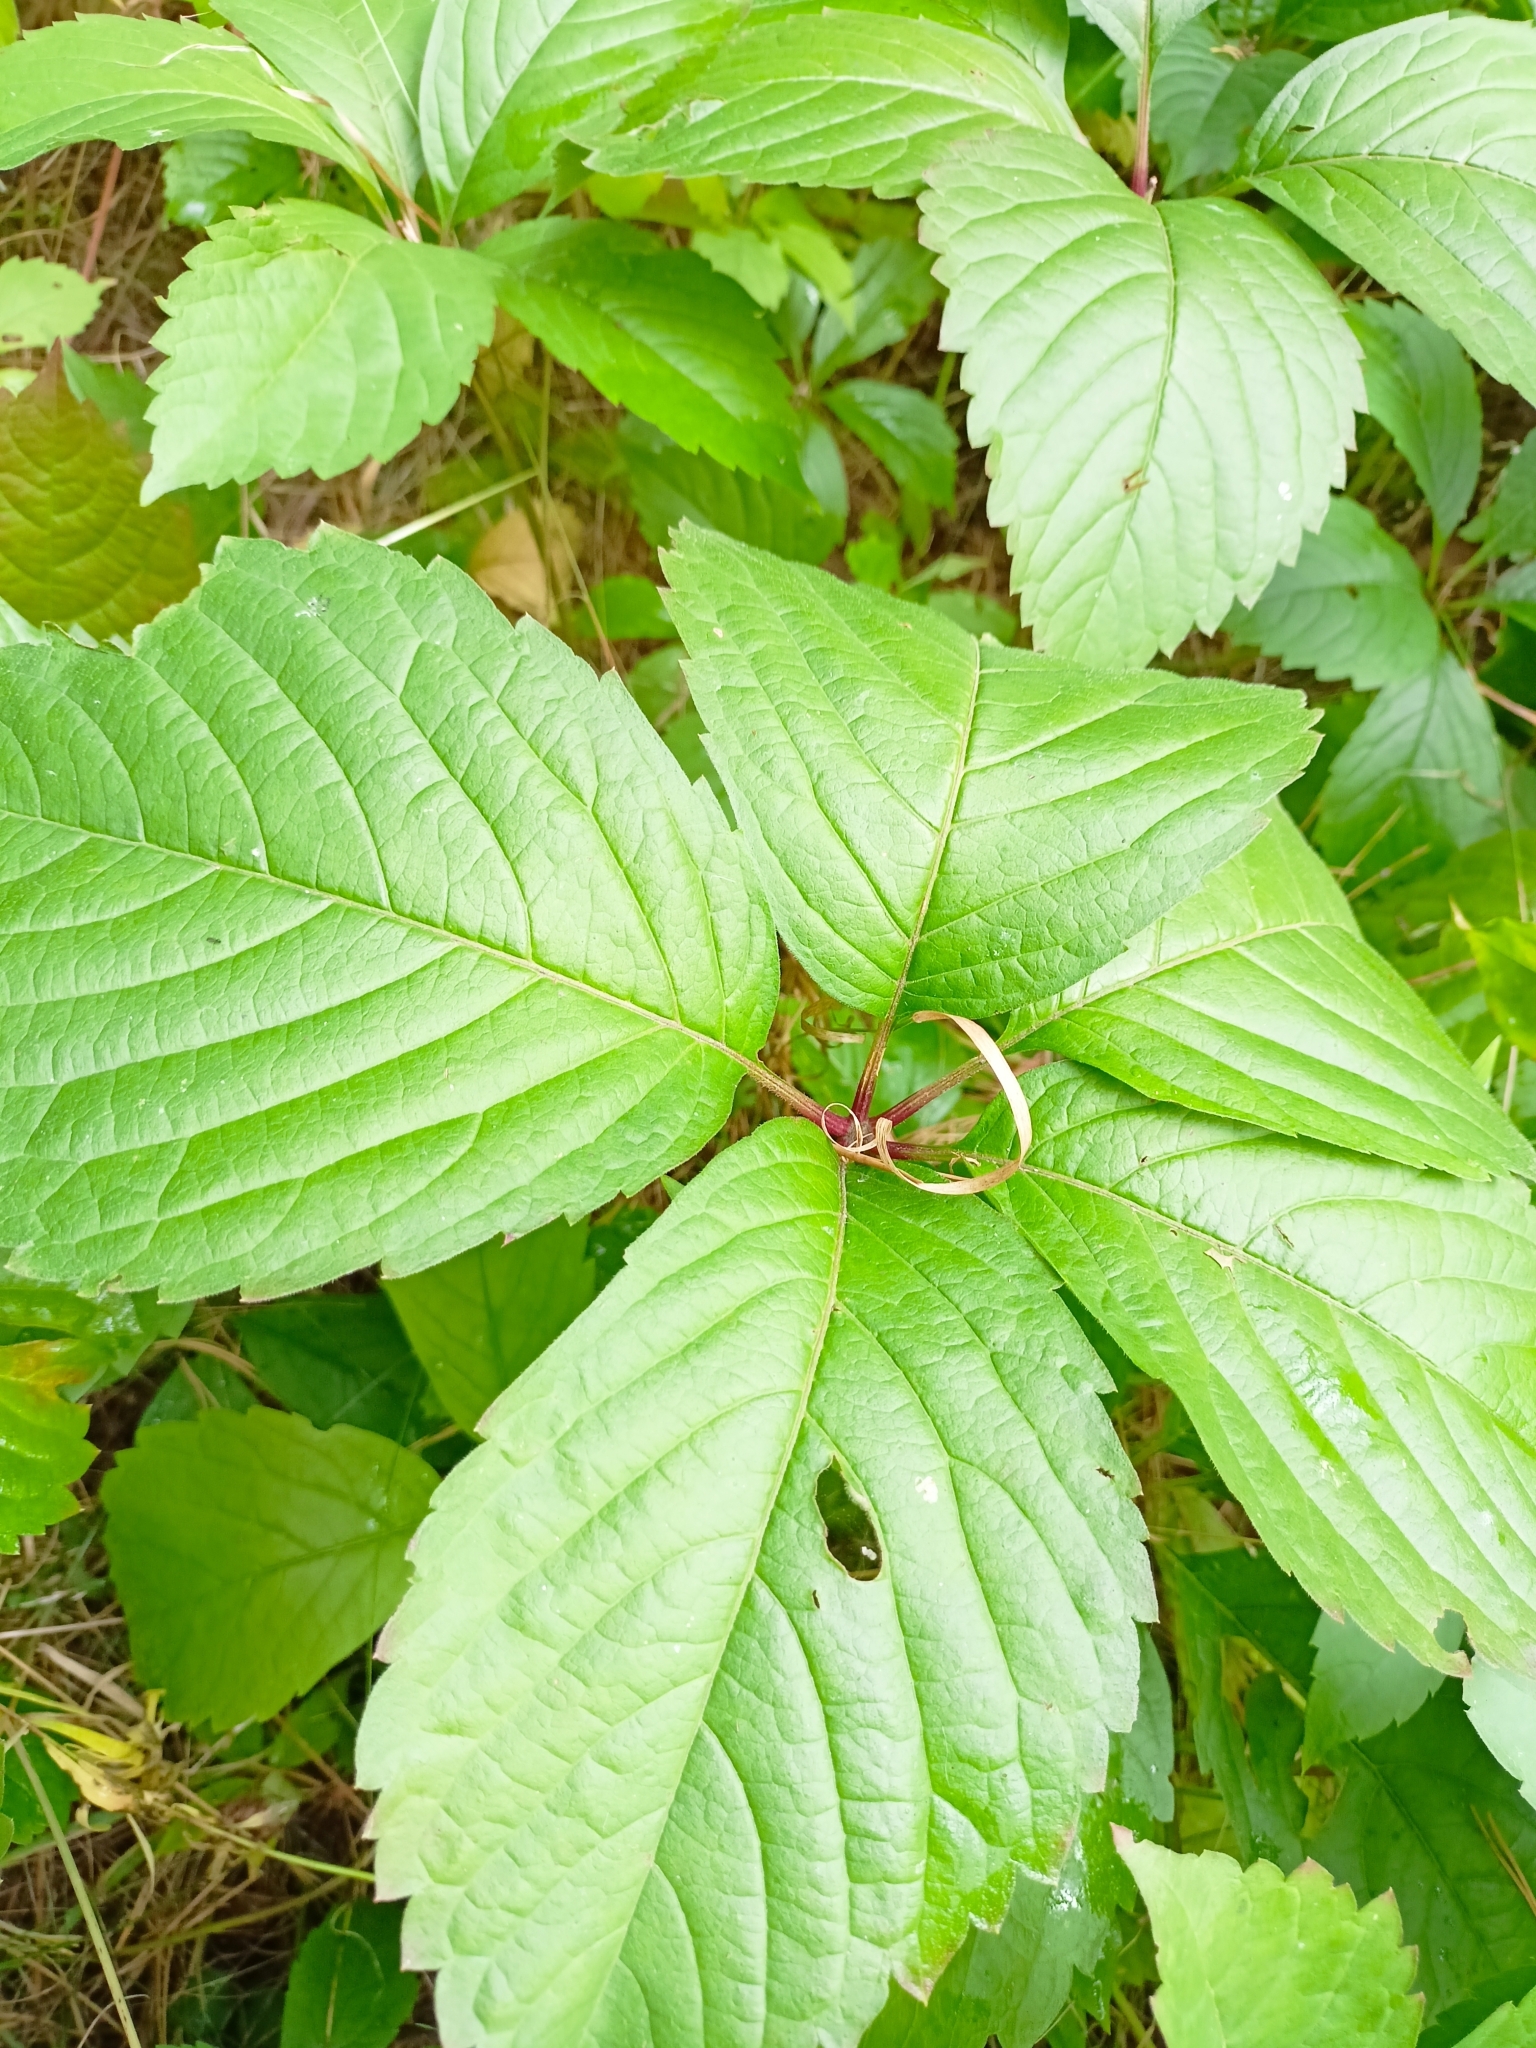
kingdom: Plantae
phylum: Tracheophyta
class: Magnoliopsida
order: Vitales
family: Vitaceae
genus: Parthenocissus
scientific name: Parthenocissus inserta
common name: False virginia-creeper
